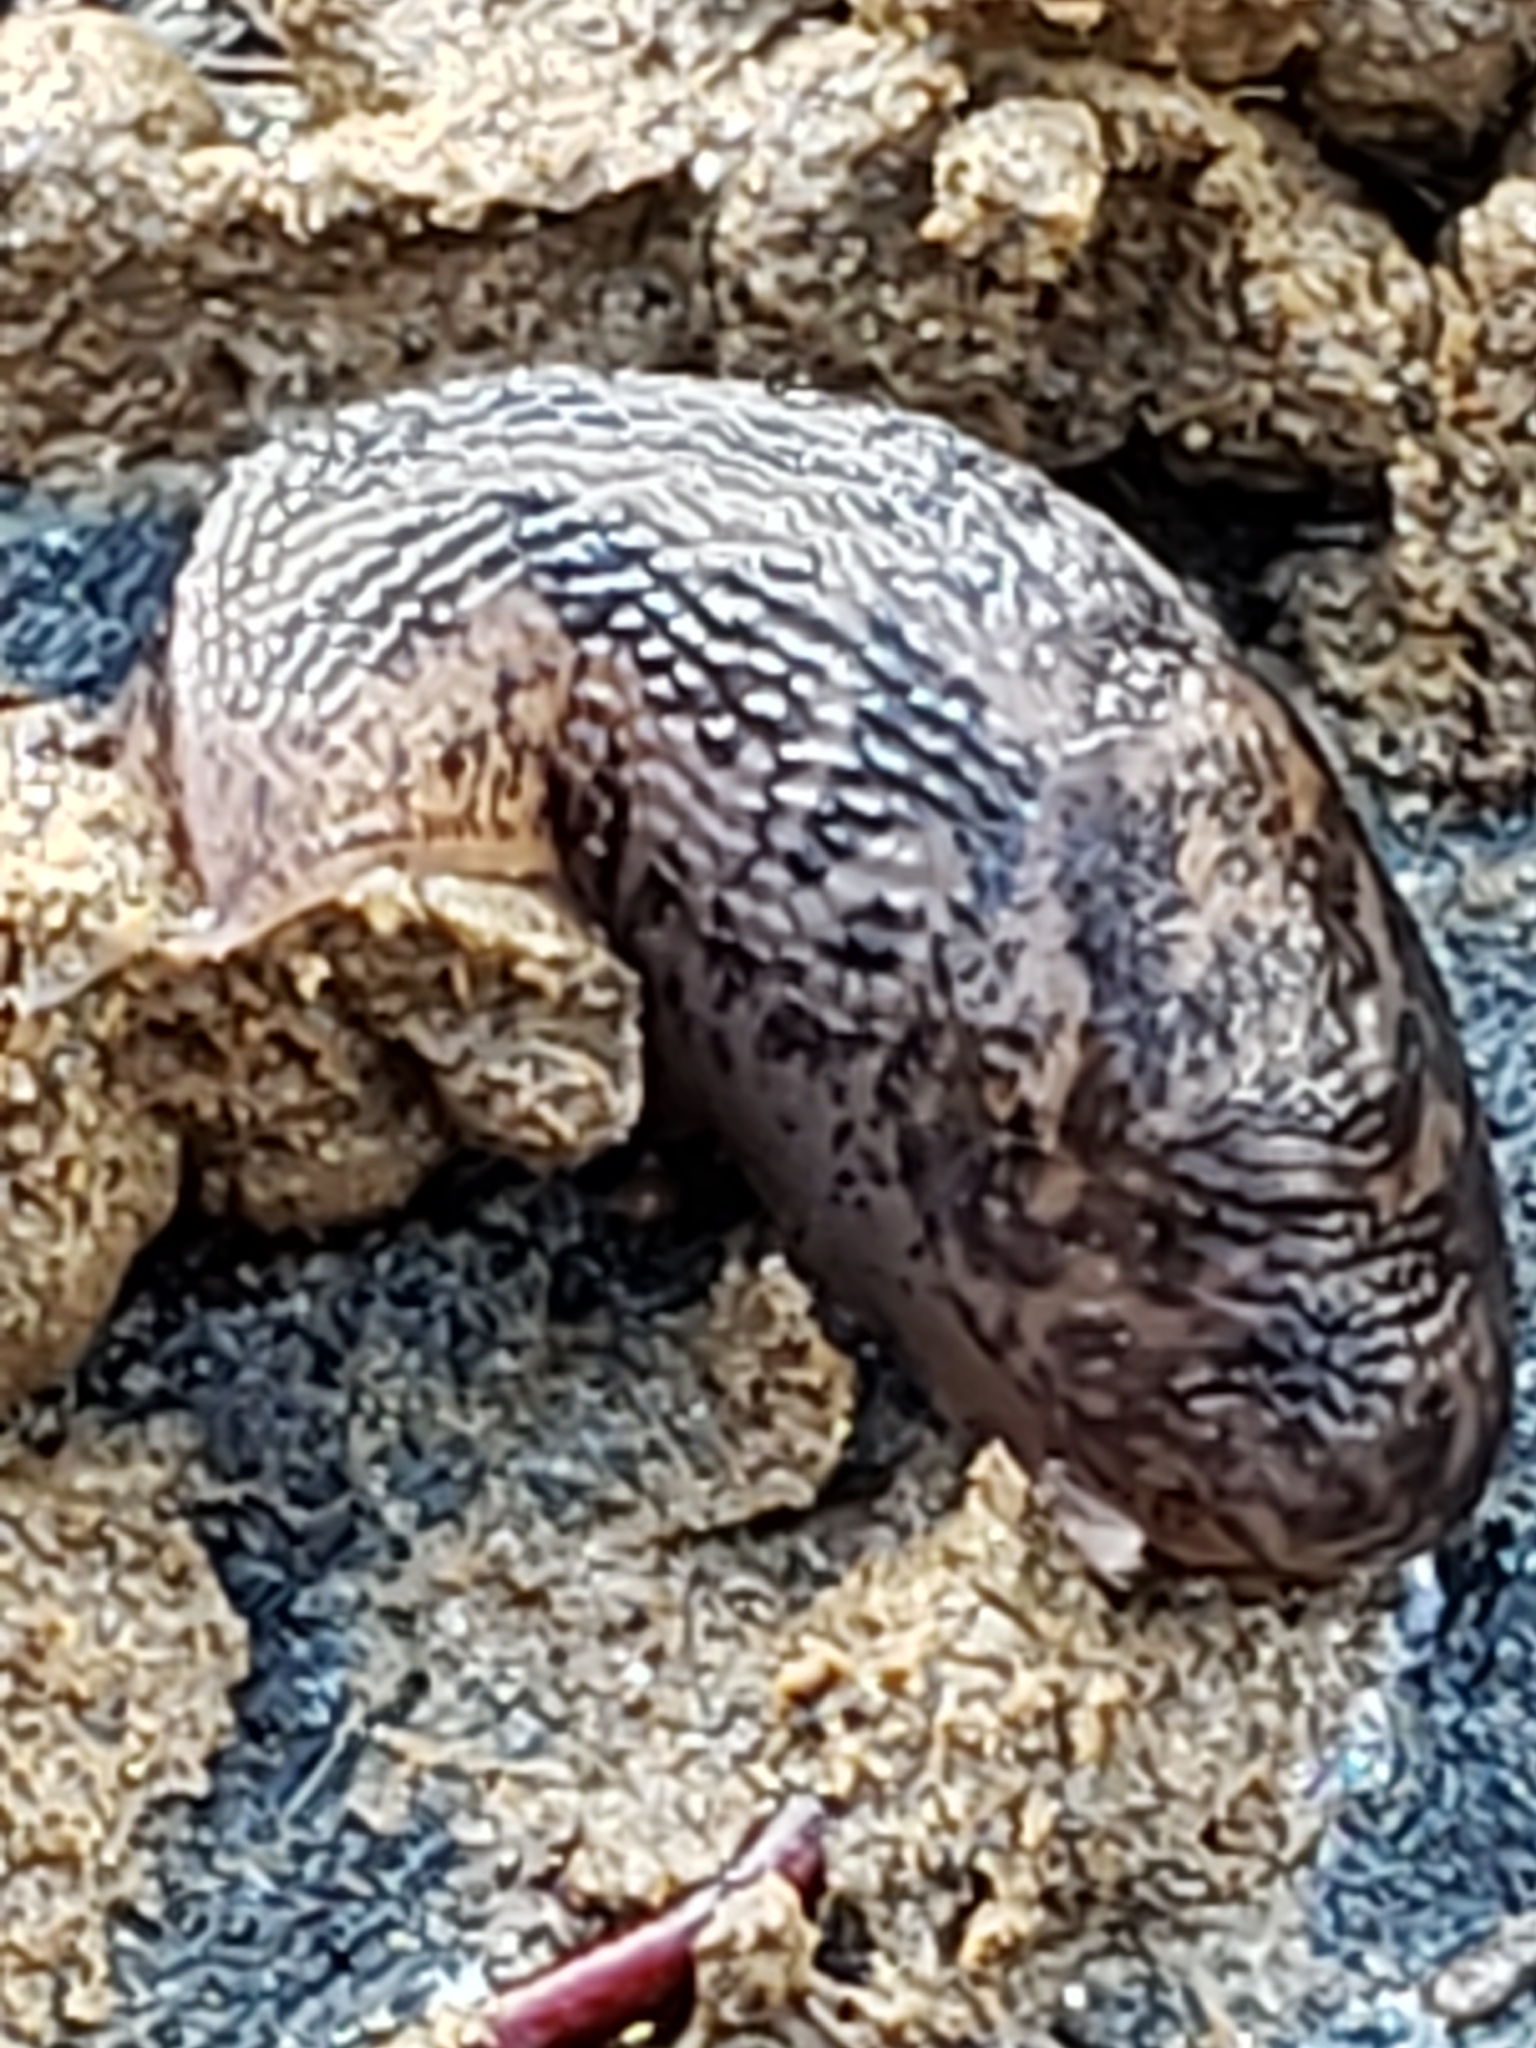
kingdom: Animalia
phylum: Mollusca
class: Gastropoda
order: Stylommatophora
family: Limacidae
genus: Limax
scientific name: Limax maximus
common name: Great grey slug
